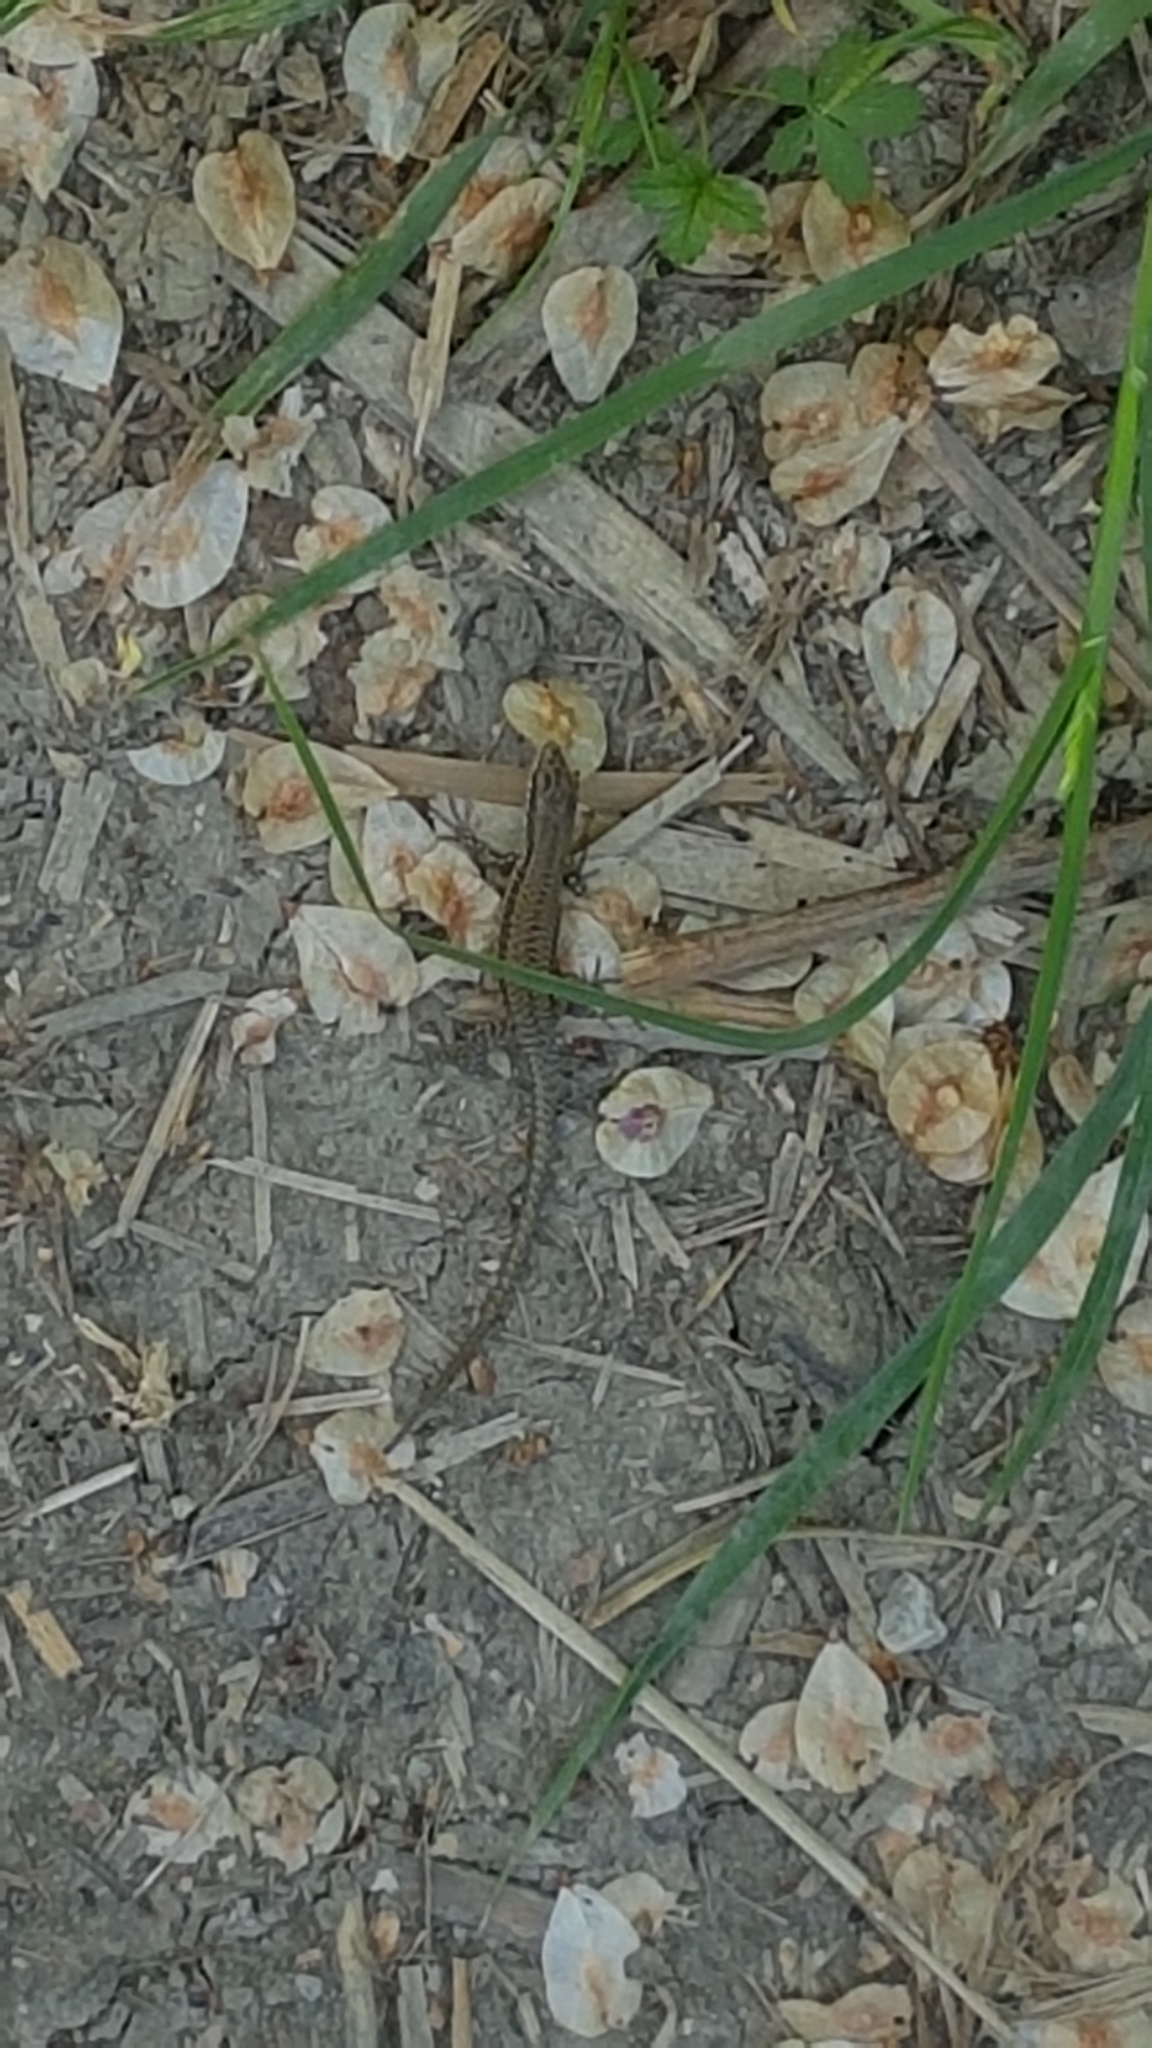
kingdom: Animalia
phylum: Chordata
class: Squamata
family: Lacertidae
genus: Podarcis
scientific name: Podarcis muralis
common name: Common wall lizard
